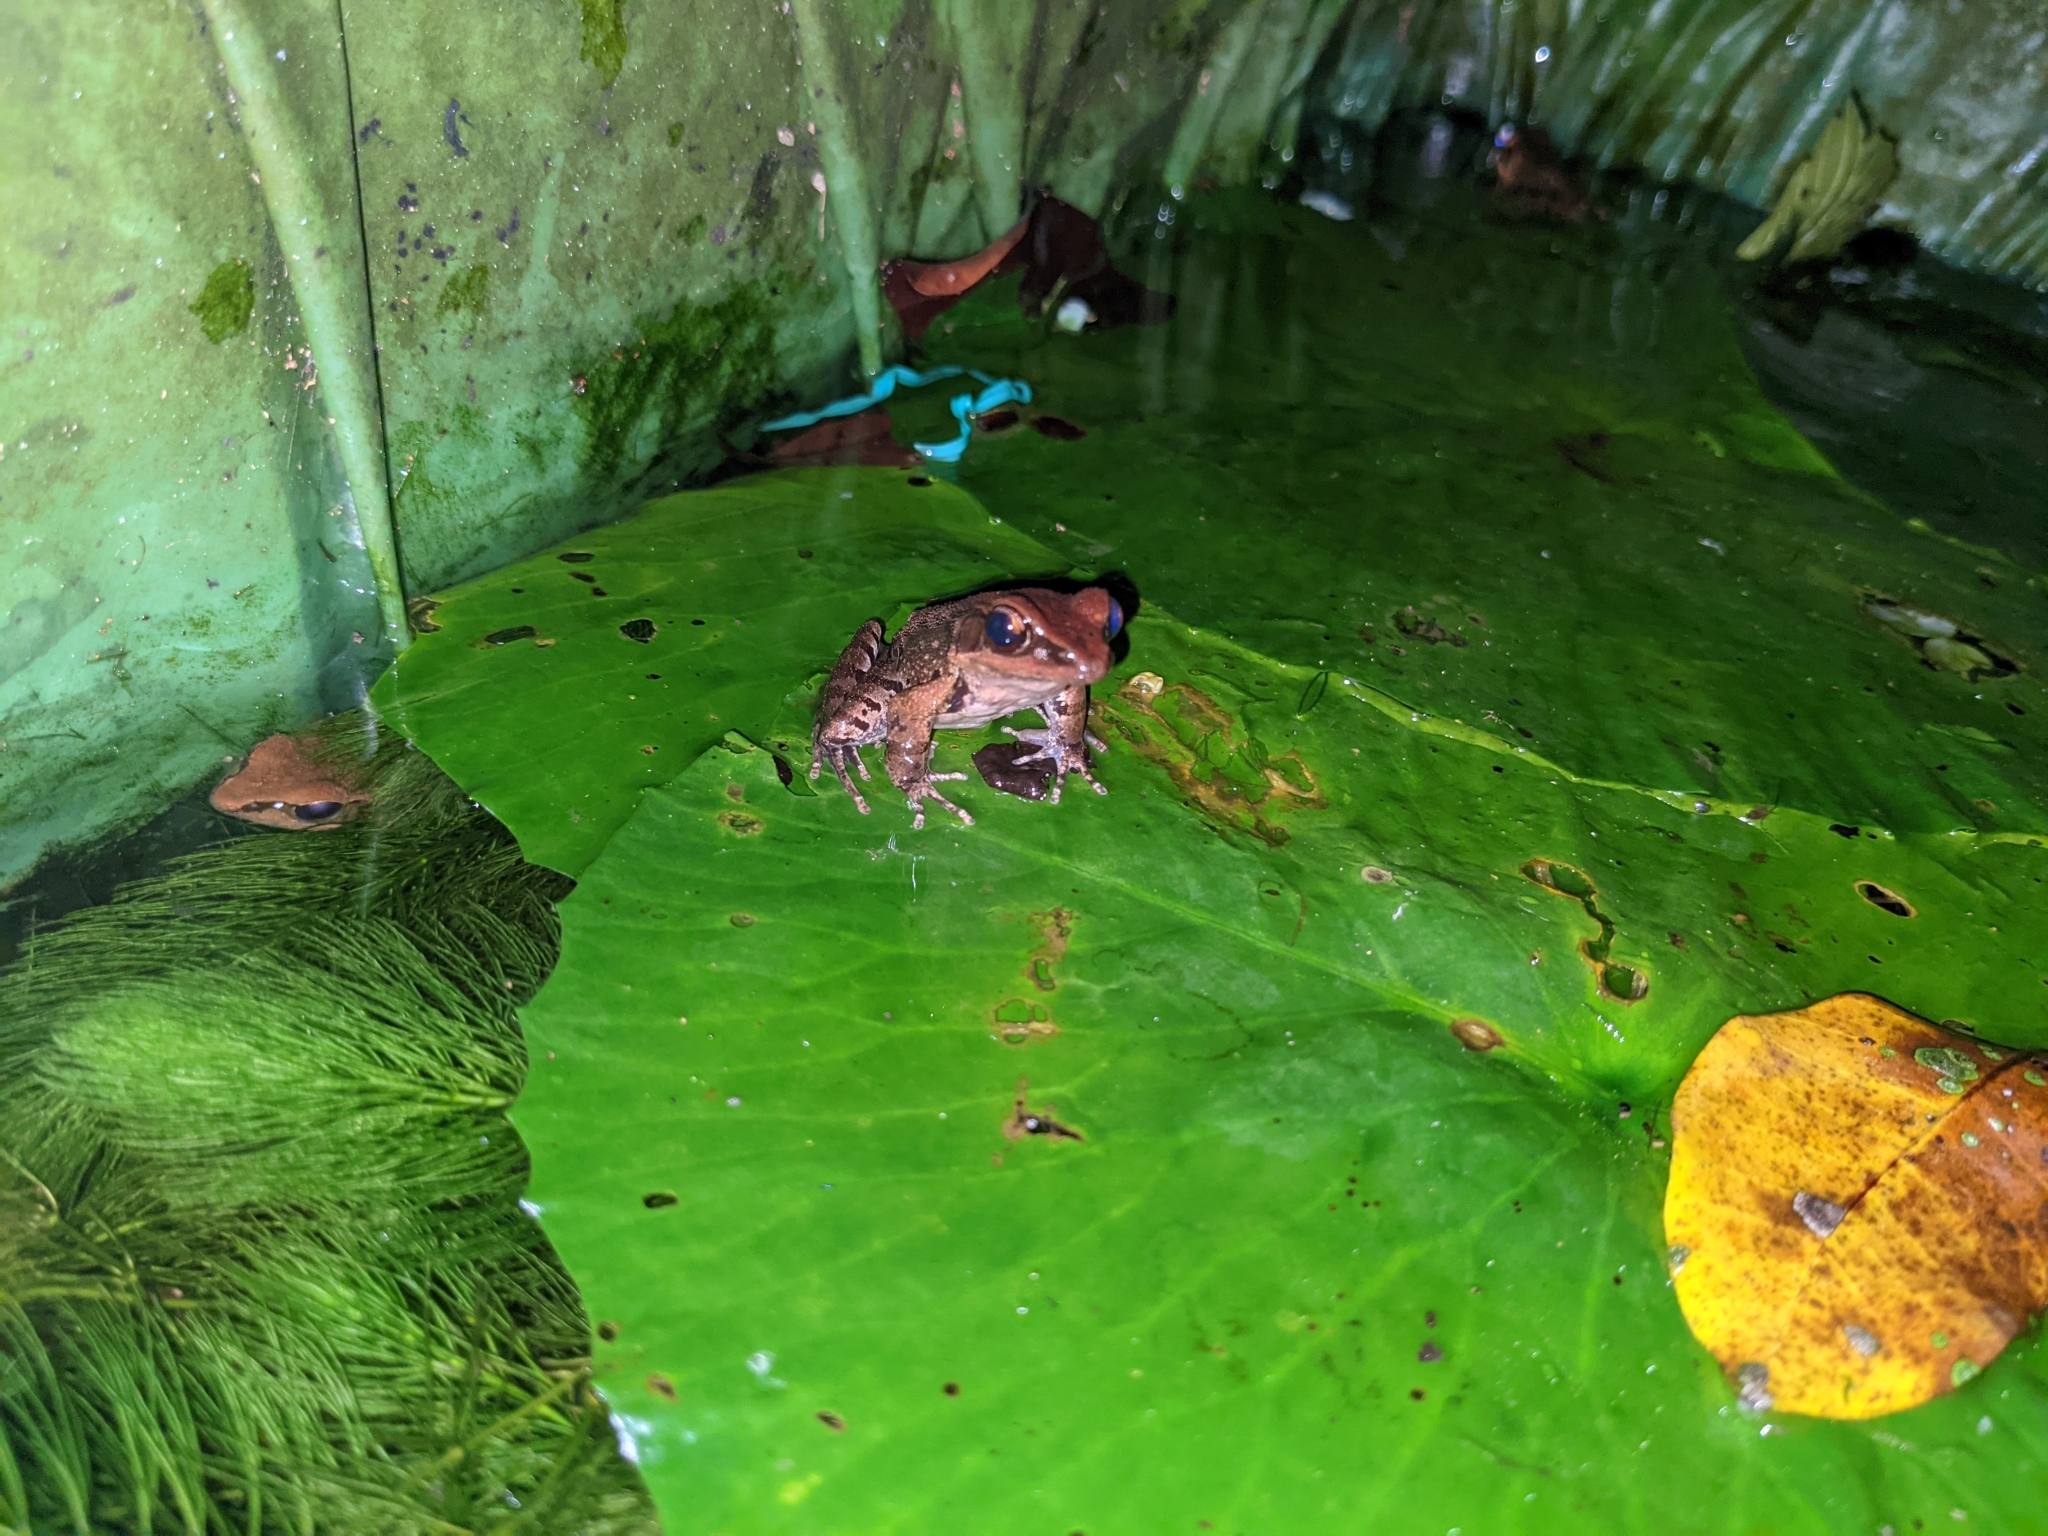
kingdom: Animalia
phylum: Chordata
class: Amphibia
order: Anura
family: Ranidae
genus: Hylarana
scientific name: Hylarana latouchii
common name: Broad-folded frog
